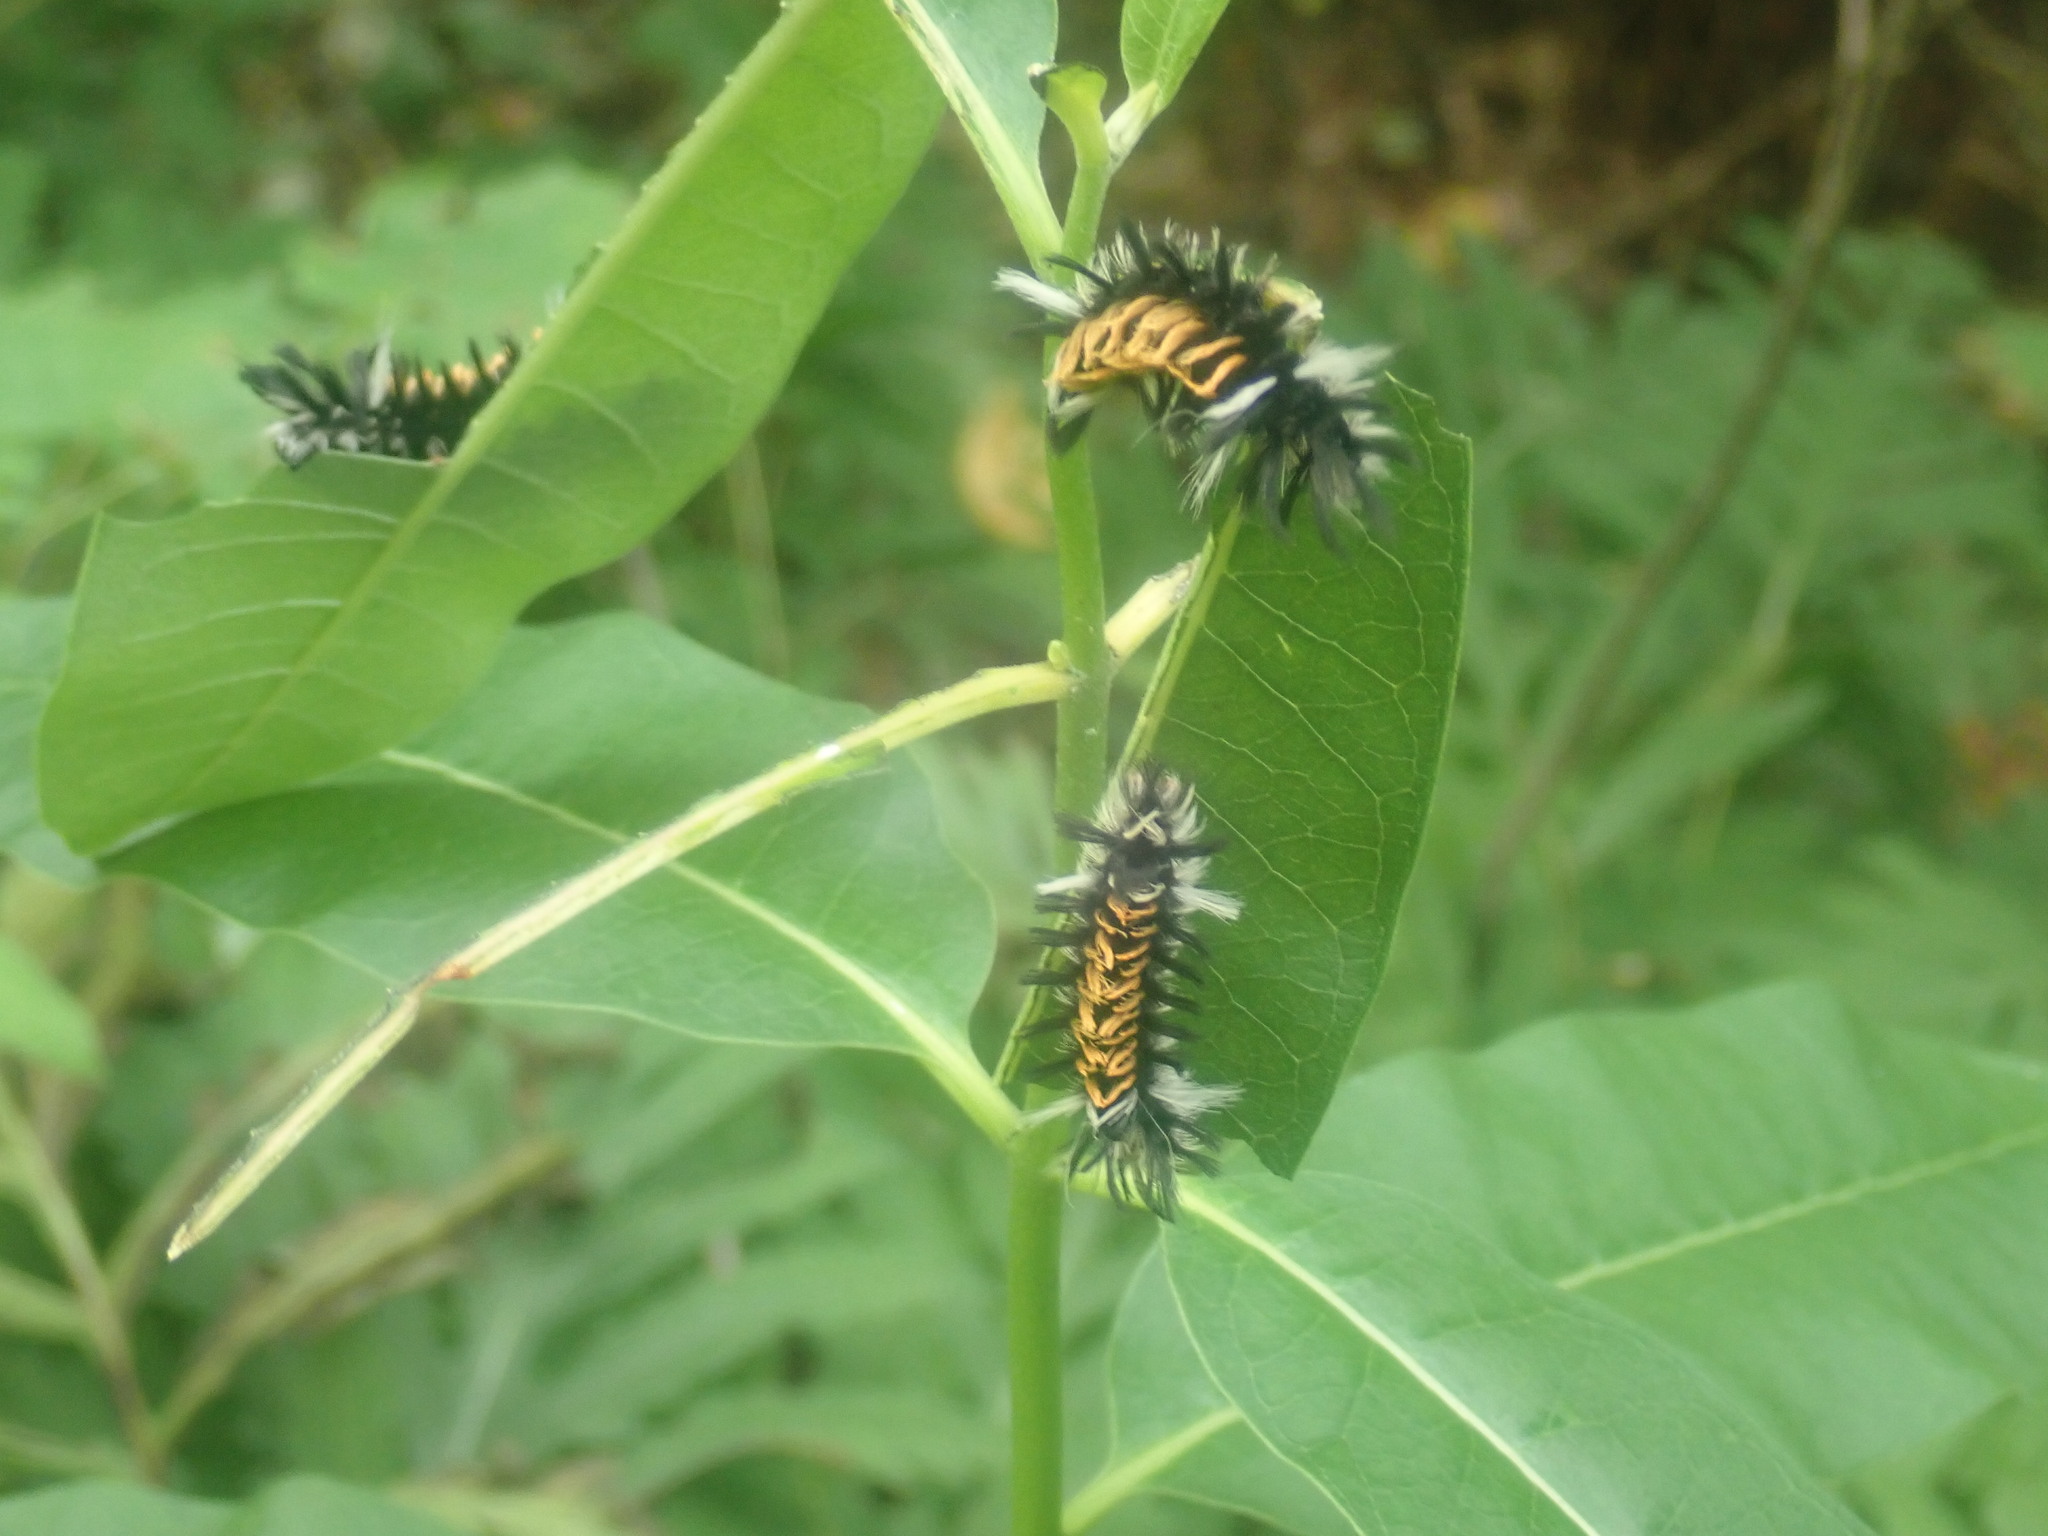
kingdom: Animalia
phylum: Arthropoda
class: Insecta
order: Lepidoptera
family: Erebidae
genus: Euchaetes
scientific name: Euchaetes egle
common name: Milkweed tussock moth
